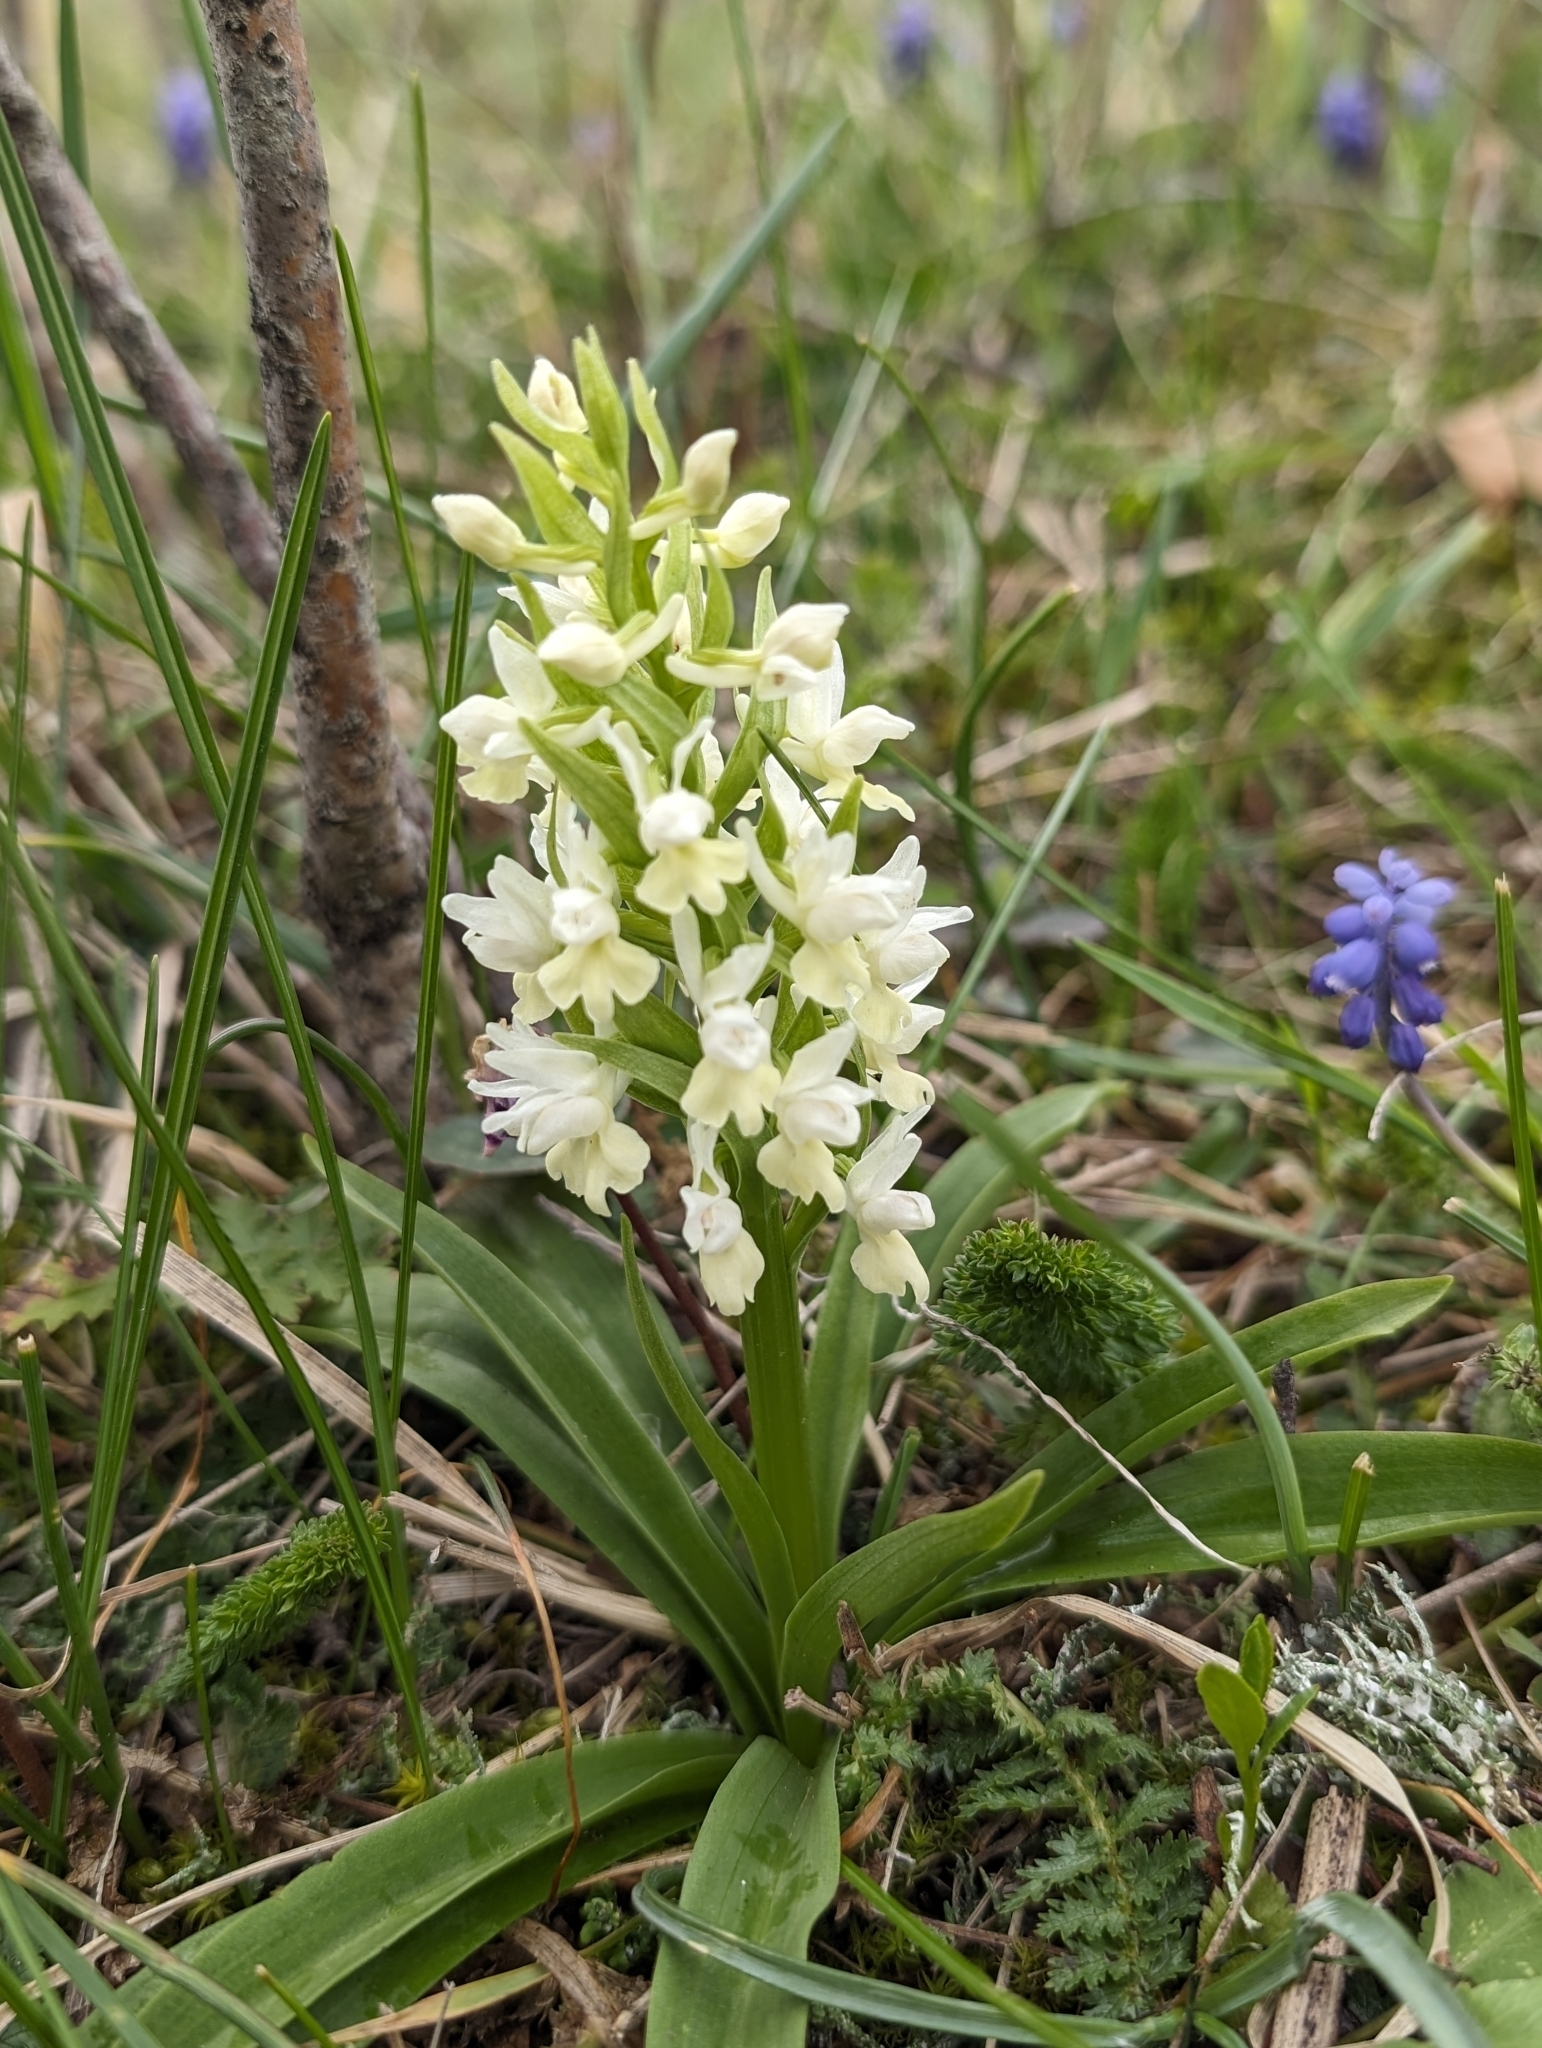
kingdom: Plantae
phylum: Tracheophyta
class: Liliopsida
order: Asparagales
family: Orchidaceae
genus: Dactylorhiza
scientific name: Dactylorhiza romana
